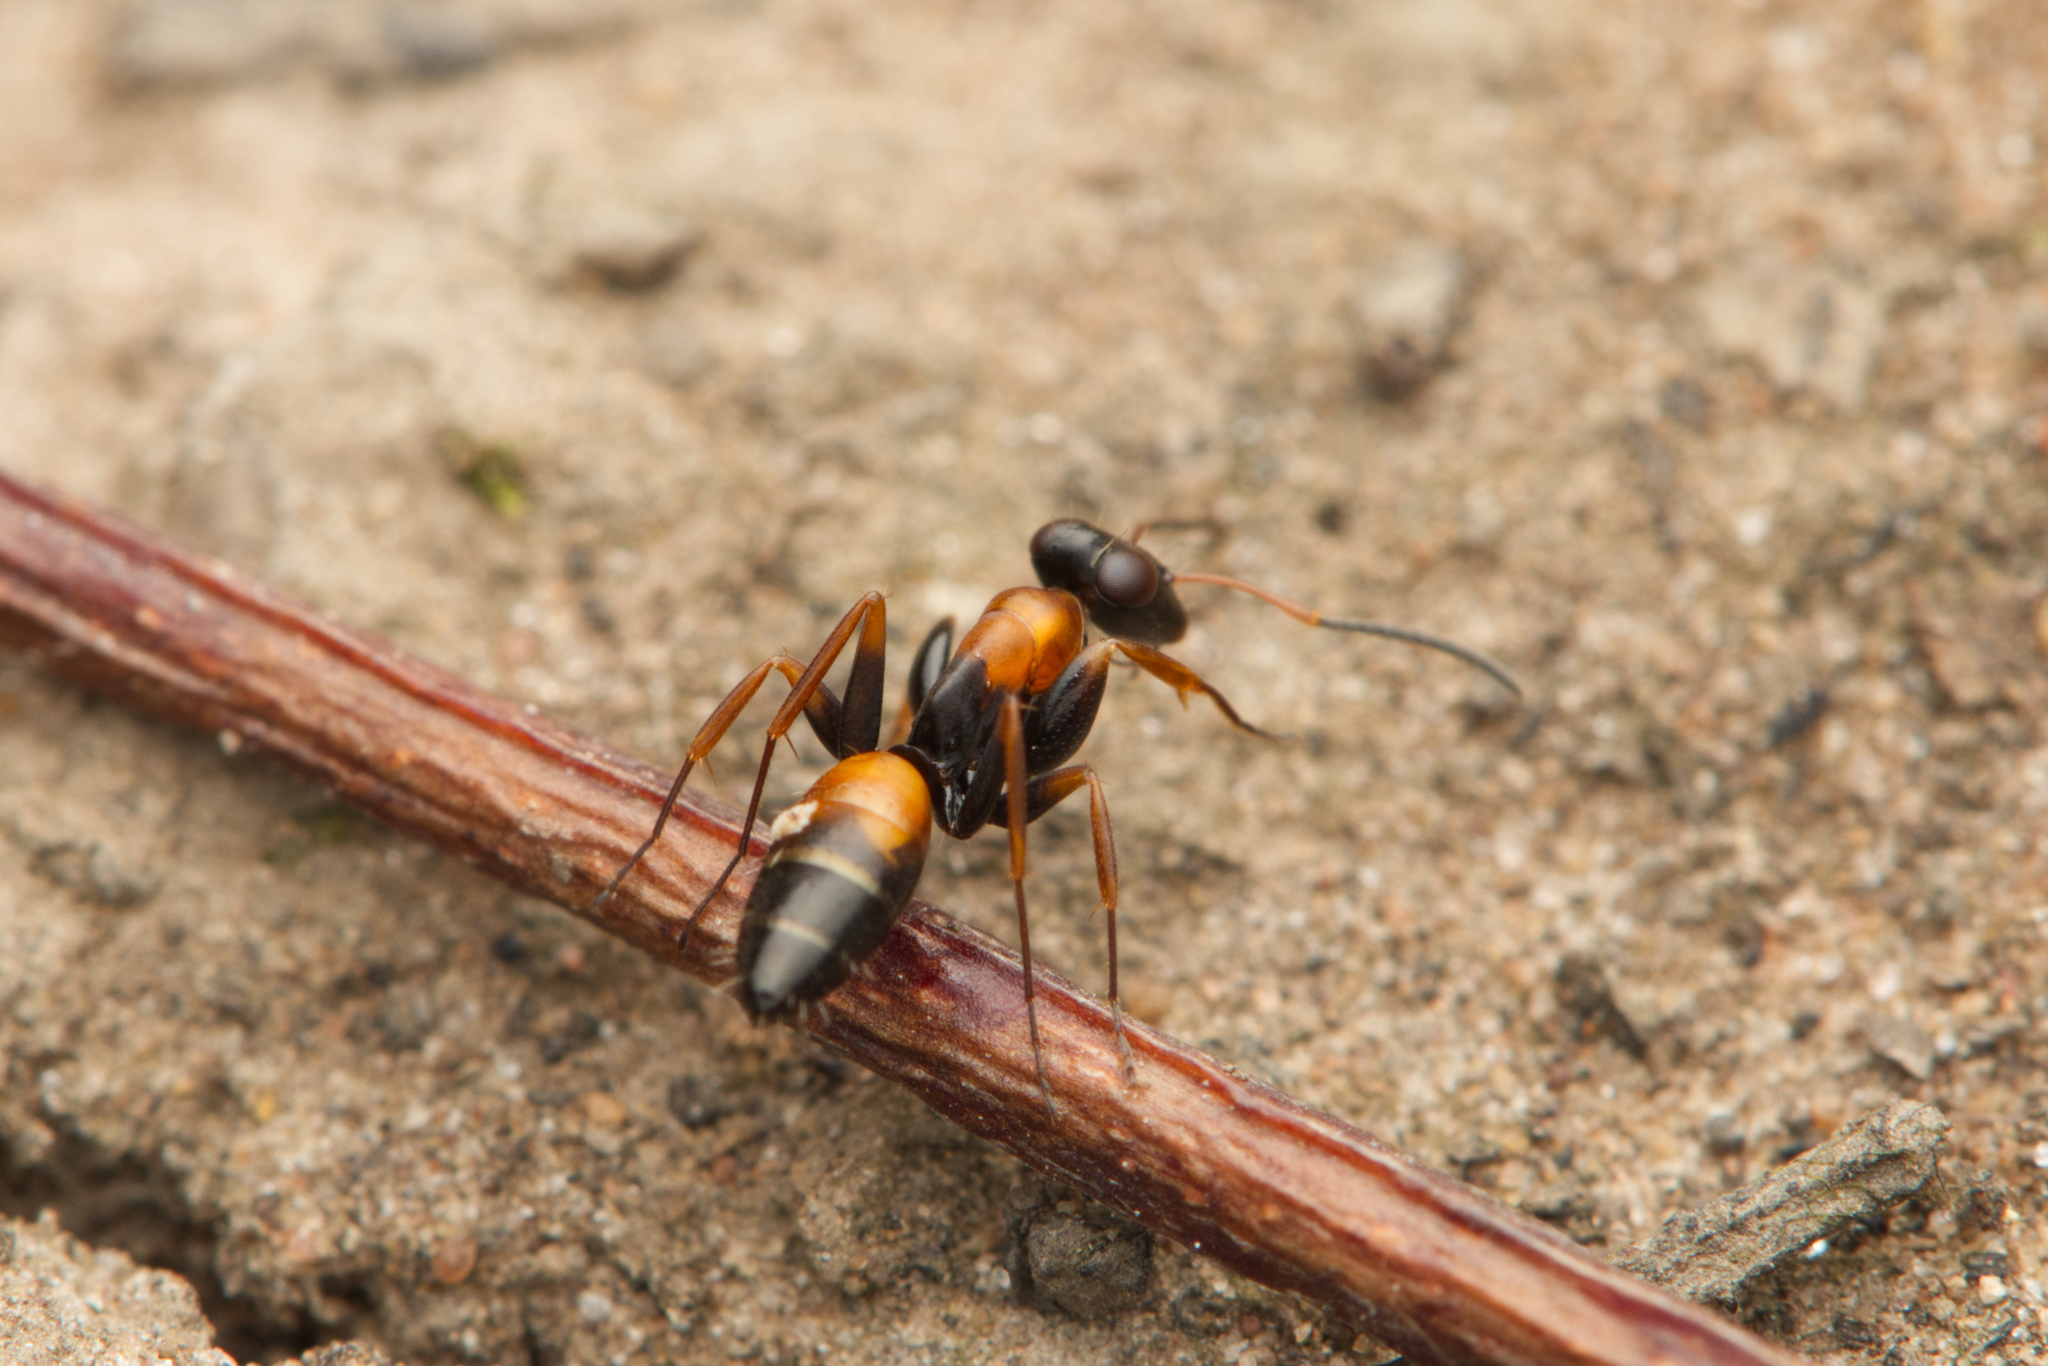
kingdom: Animalia
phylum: Arthropoda
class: Insecta
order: Hymenoptera
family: Formicidae
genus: Opisthopsis
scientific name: Opisthopsis pictus
